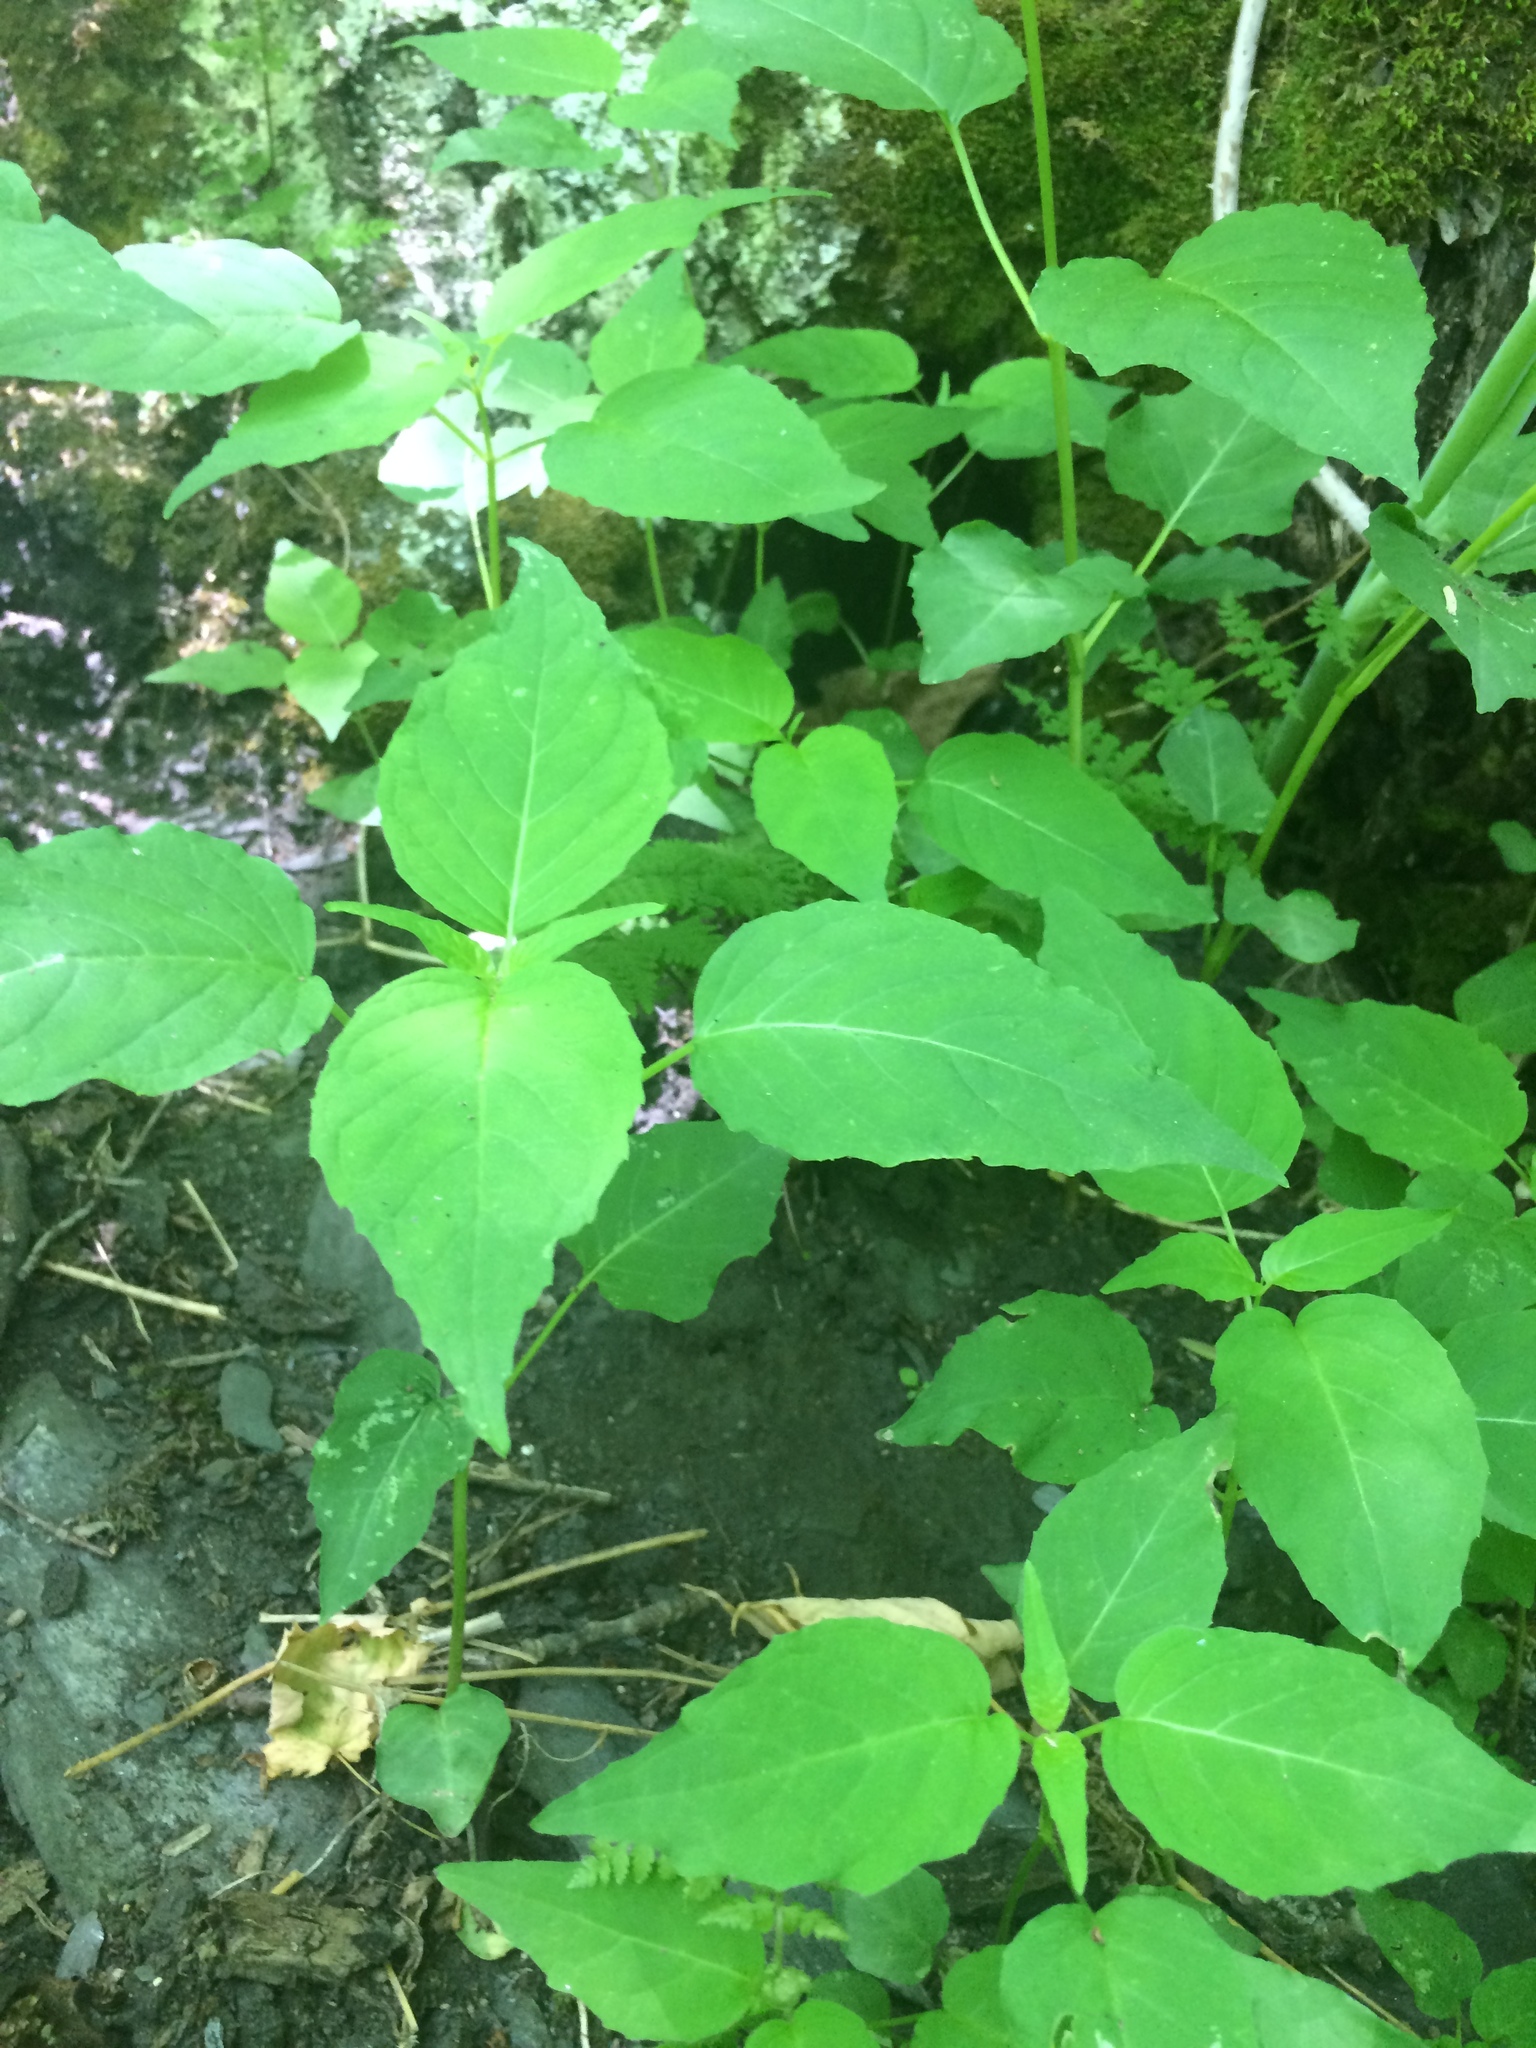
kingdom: Plantae
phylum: Tracheophyta
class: Magnoliopsida
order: Myrtales
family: Onagraceae
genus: Circaea
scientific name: Circaea canadensis
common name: Broad-leaved enchanter's nightshade
